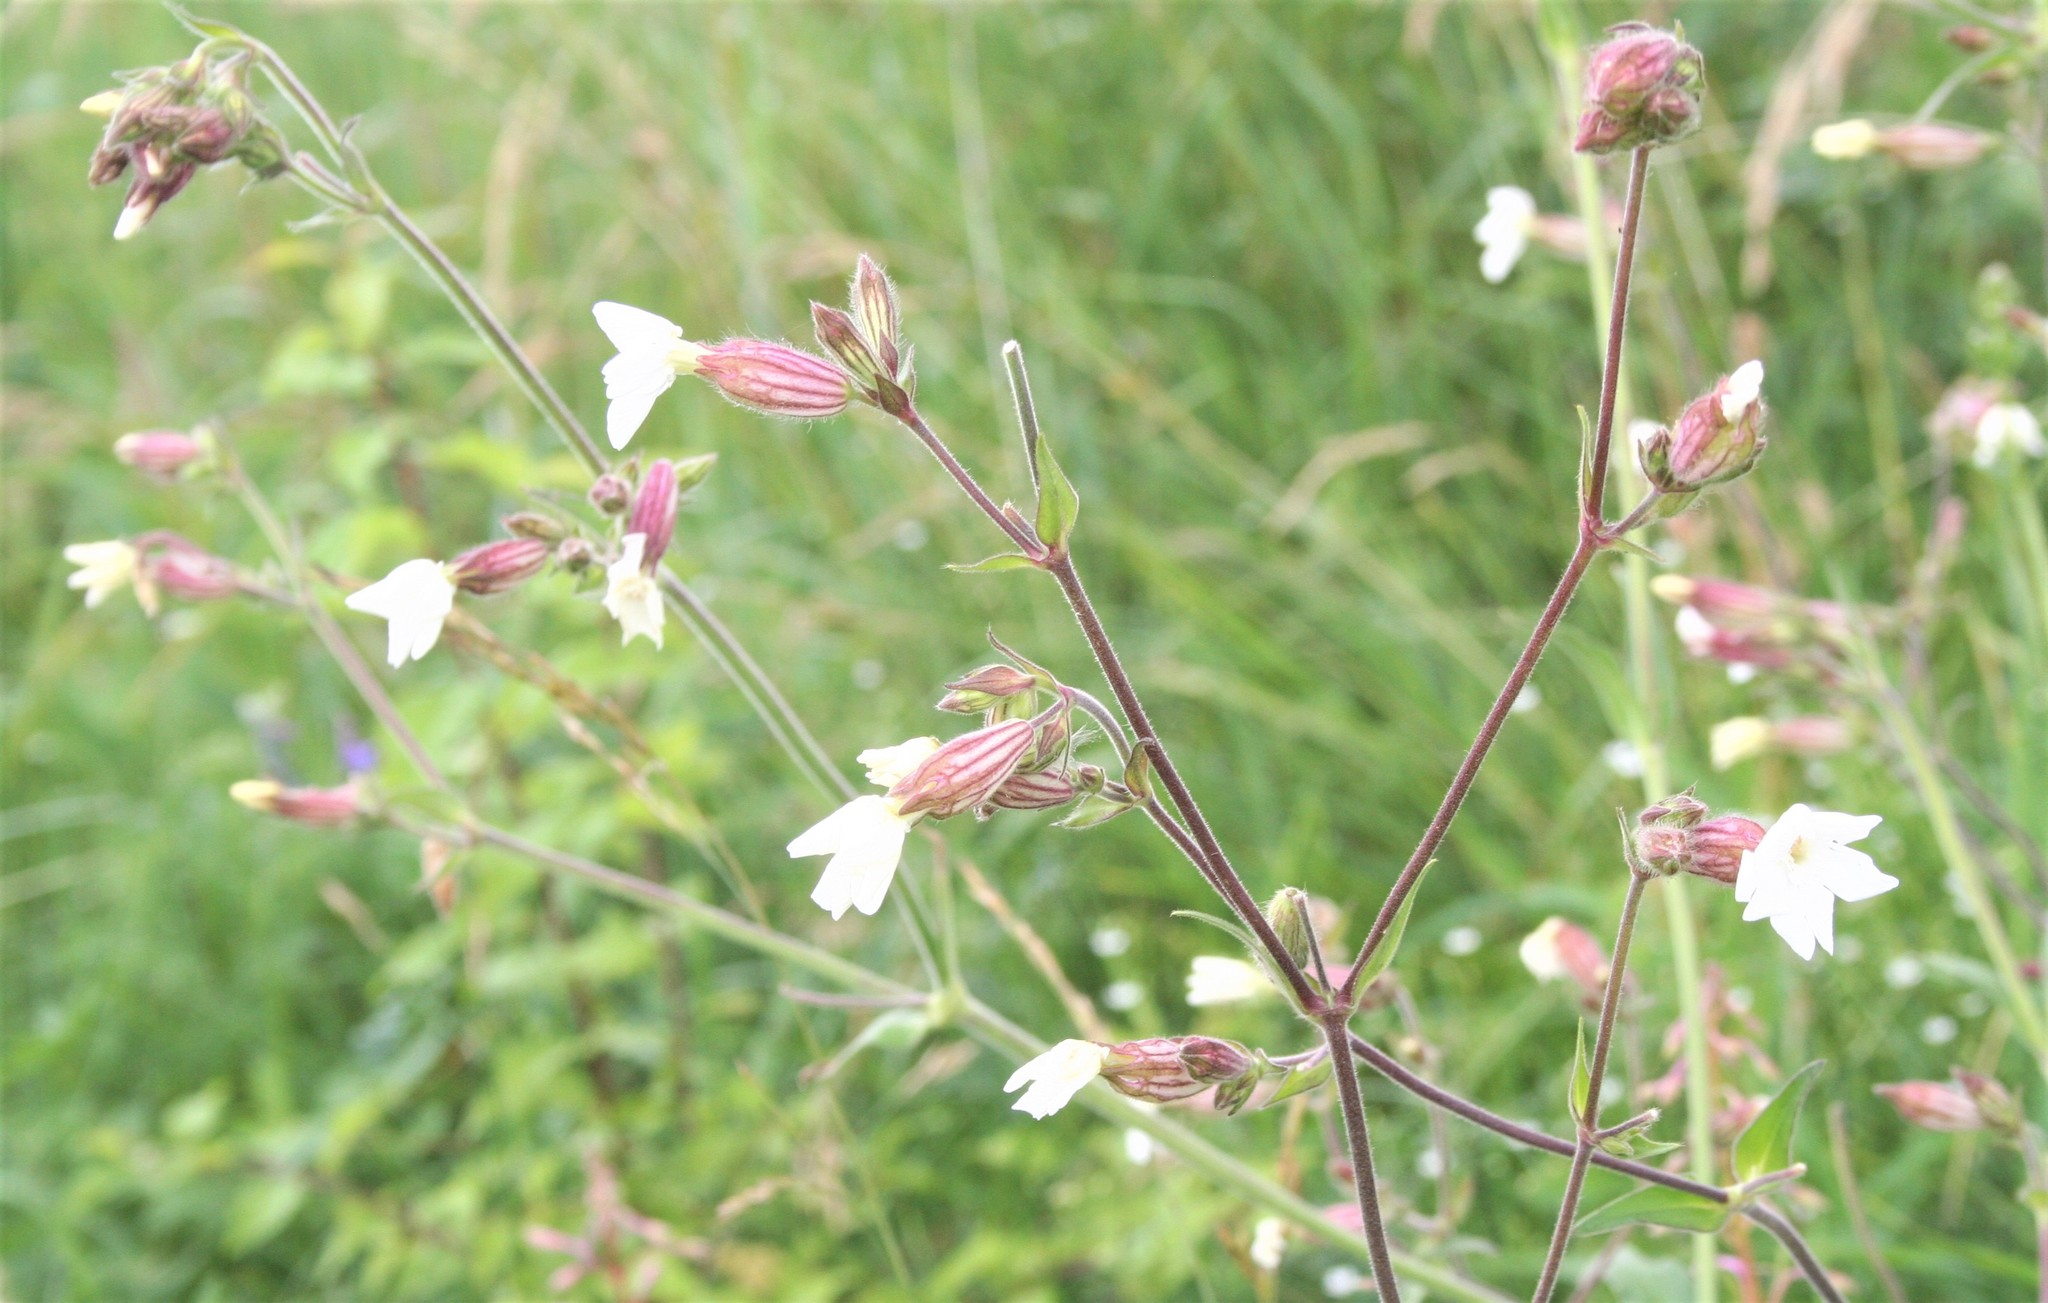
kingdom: Plantae
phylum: Tracheophyta
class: Magnoliopsida
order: Caryophyllales
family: Caryophyllaceae
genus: Silene
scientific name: Silene latifolia
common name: White campion
